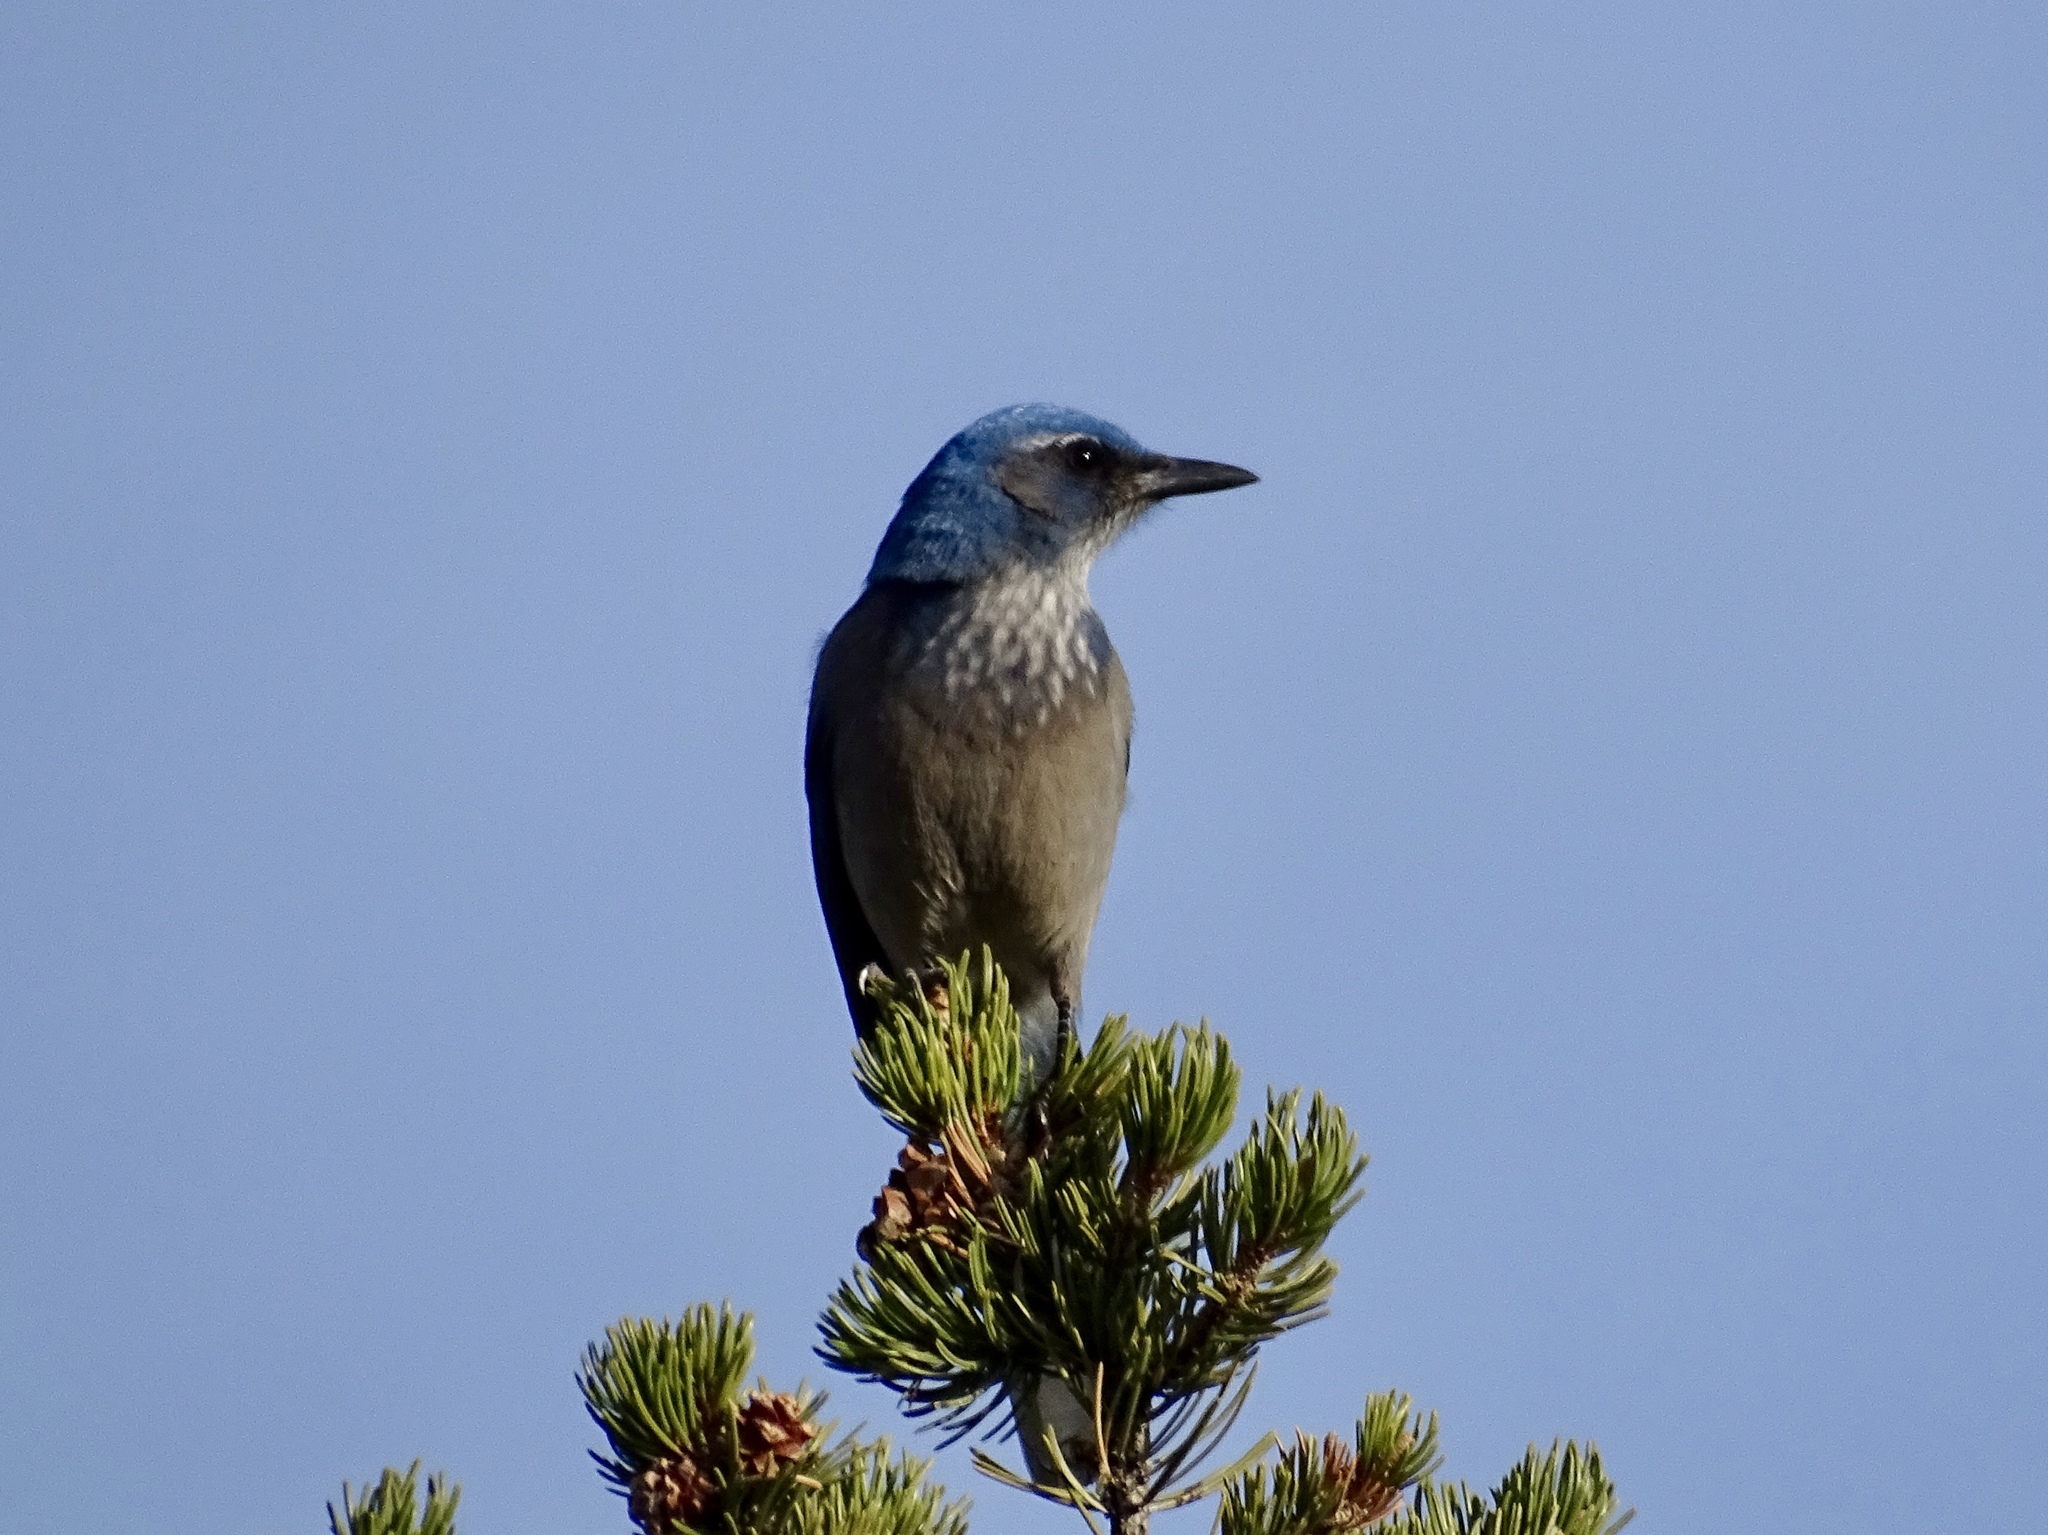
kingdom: Animalia
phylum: Chordata
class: Aves
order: Passeriformes
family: Corvidae
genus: Aphelocoma
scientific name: Aphelocoma woodhouseii
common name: Woodhouse's scrub-jay
